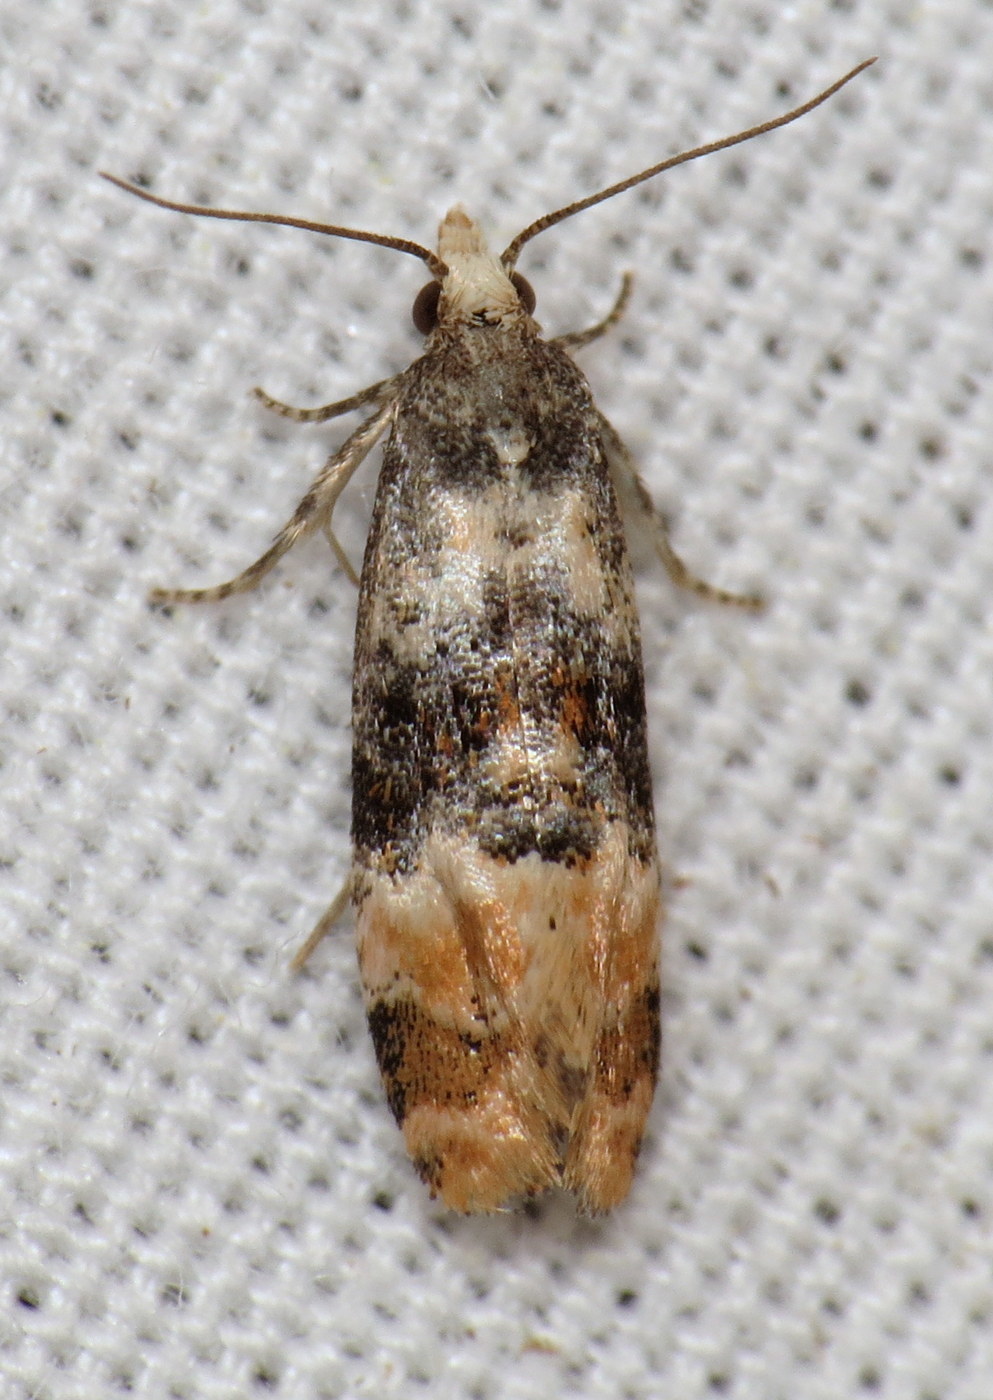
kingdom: Animalia
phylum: Arthropoda
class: Insecta
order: Lepidoptera
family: Tortricidae
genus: Thyraylia
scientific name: Thyraylia nana
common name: Birch conch
